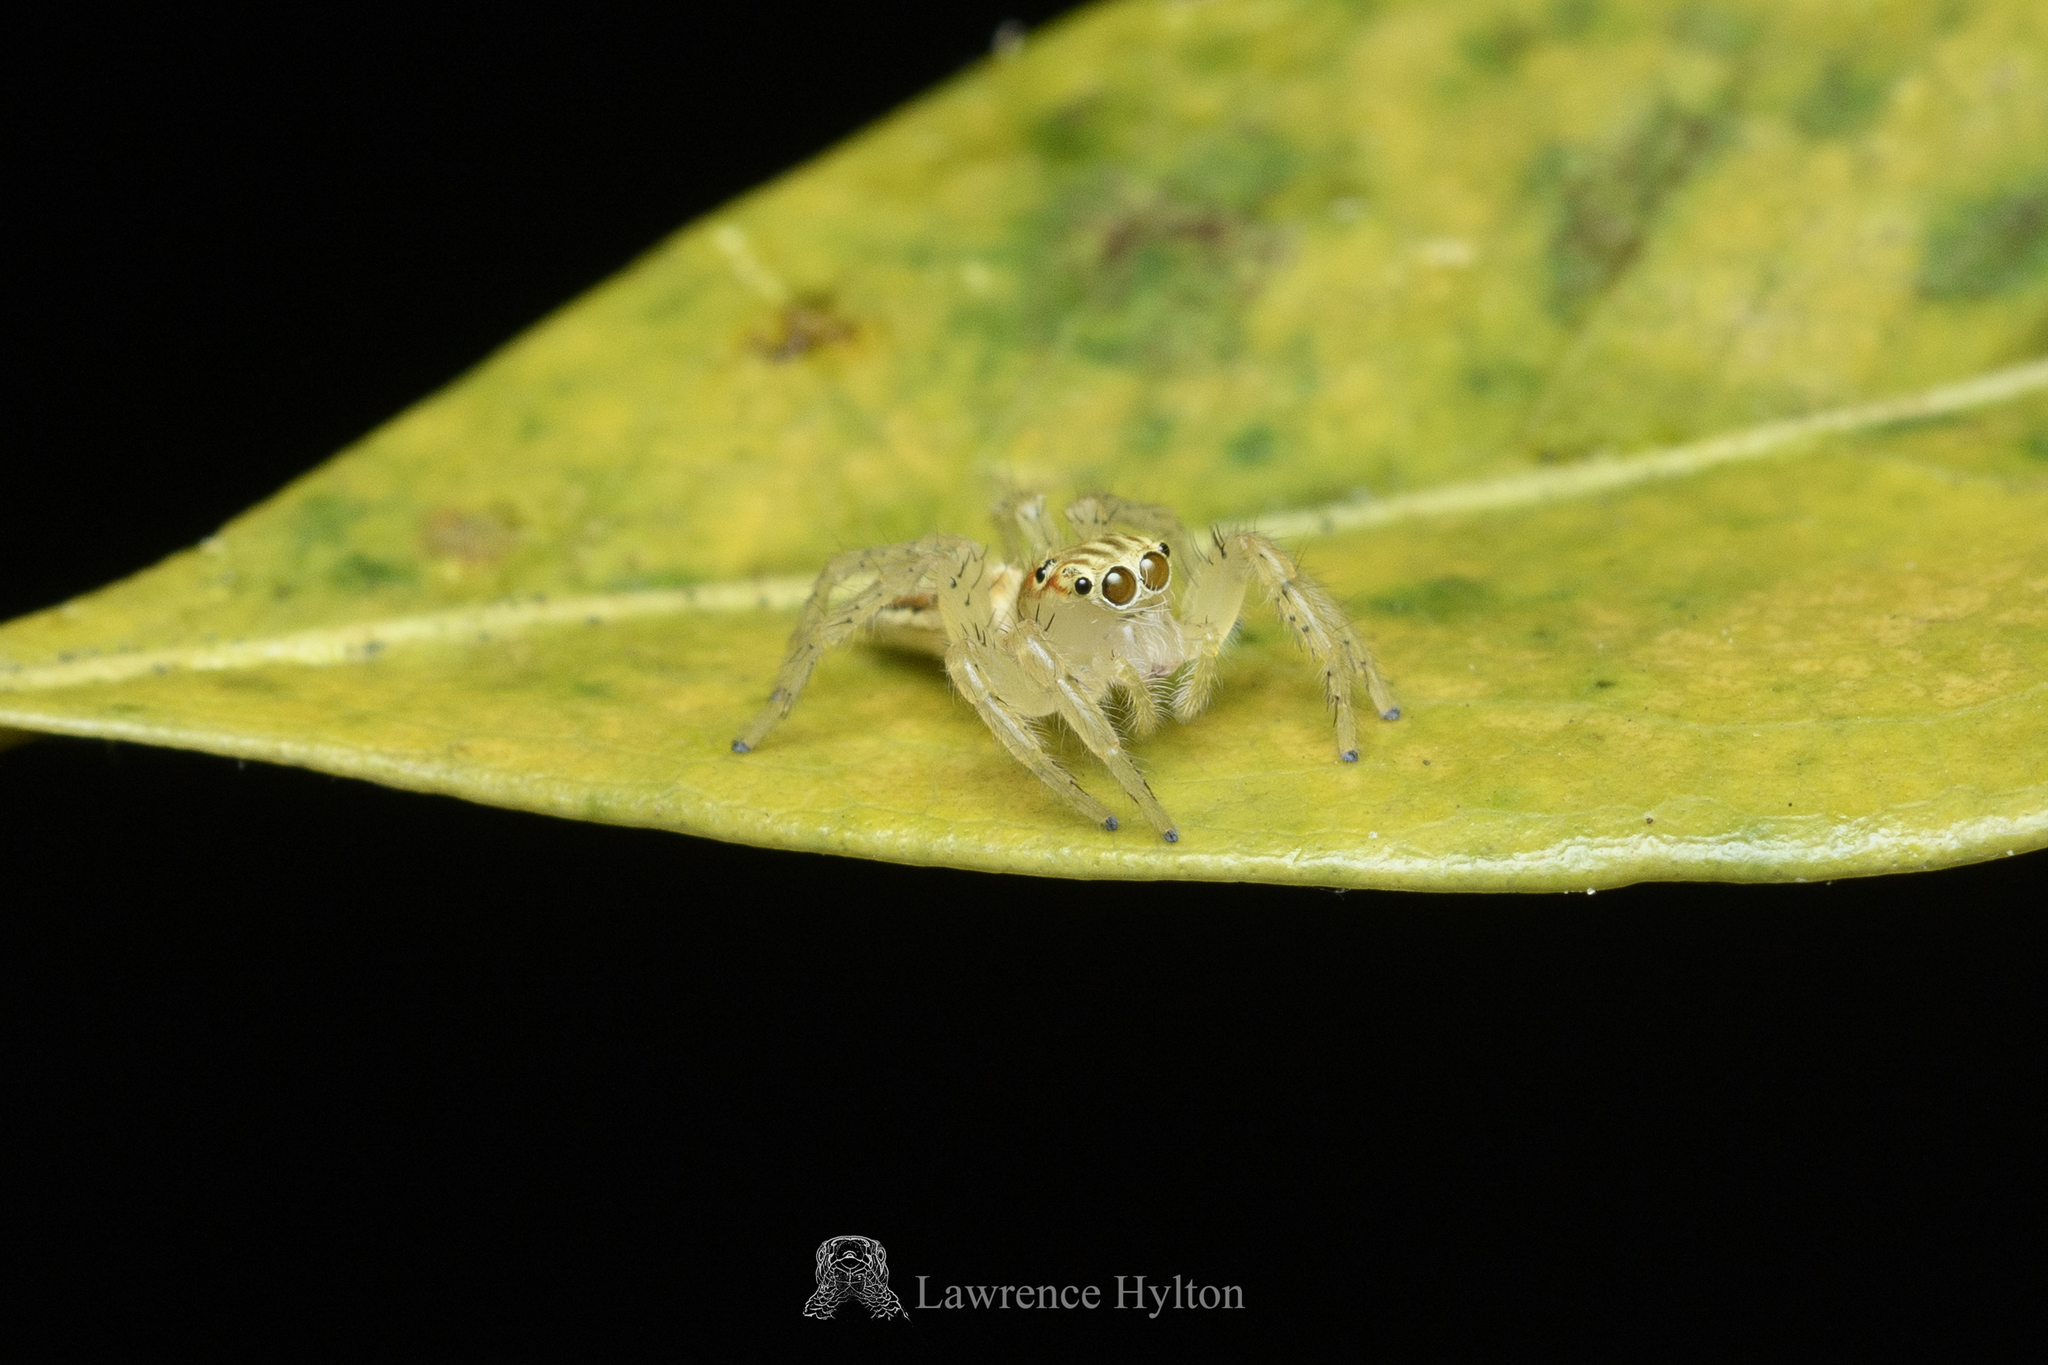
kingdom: Animalia
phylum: Arthropoda
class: Arachnida
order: Araneae
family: Salticidae
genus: Telamonia
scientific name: Telamonia caprina
